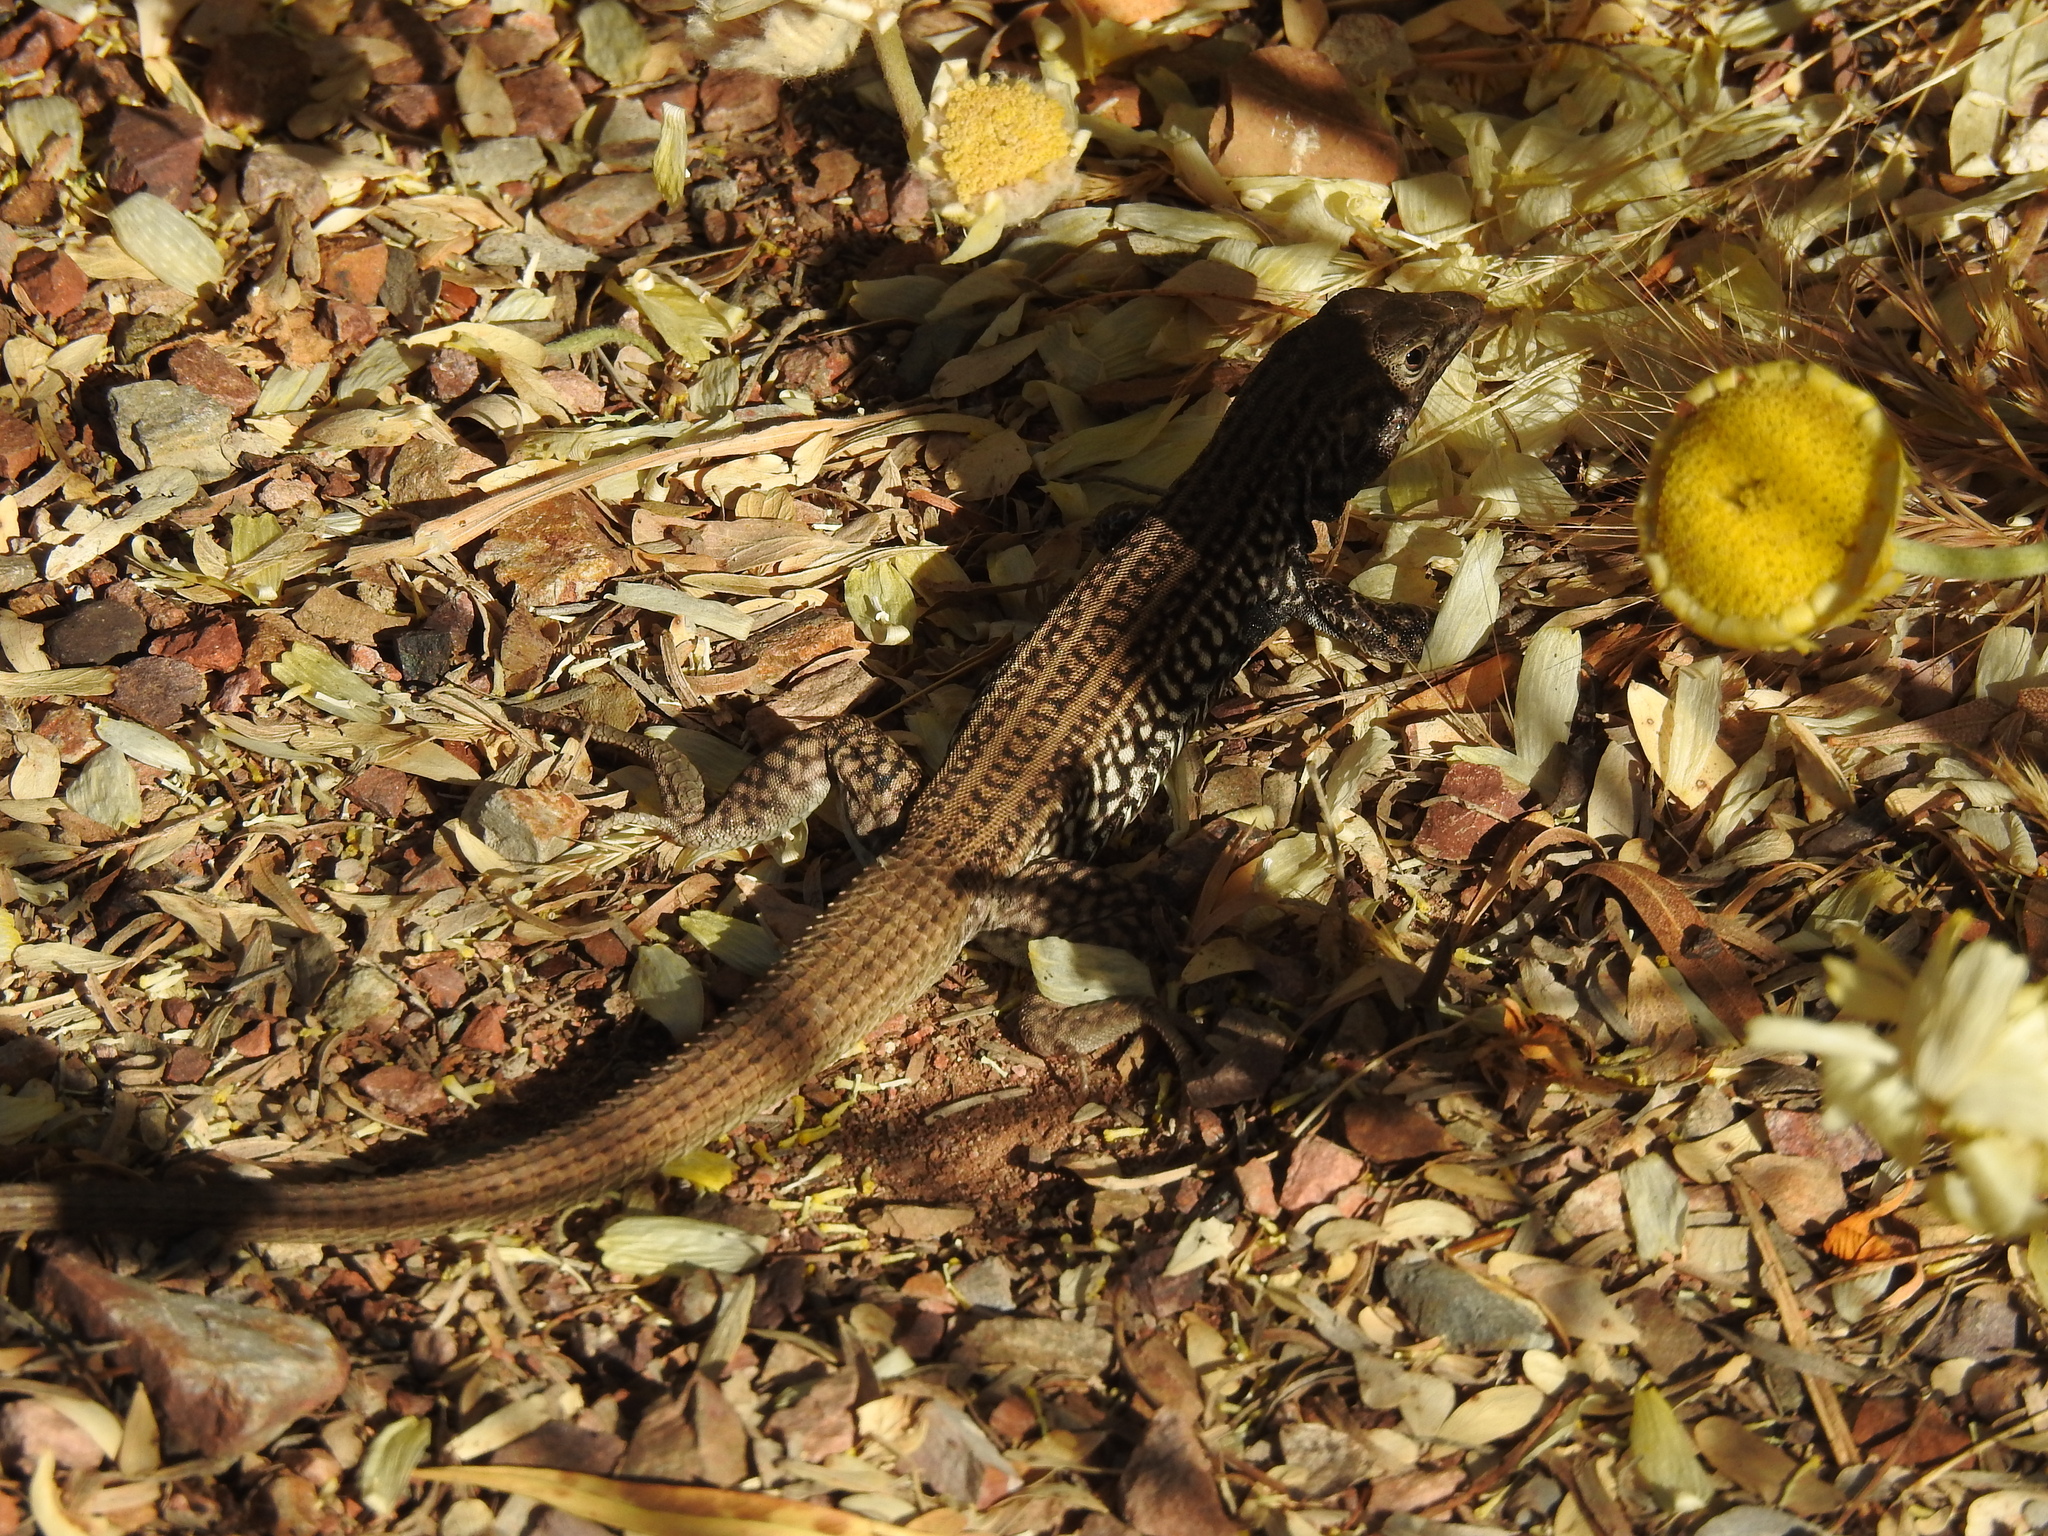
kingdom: Animalia
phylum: Chordata
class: Squamata
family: Teiidae
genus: Aspidoscelis
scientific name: Aspidoscelis tigris
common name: Tiger whiptail
